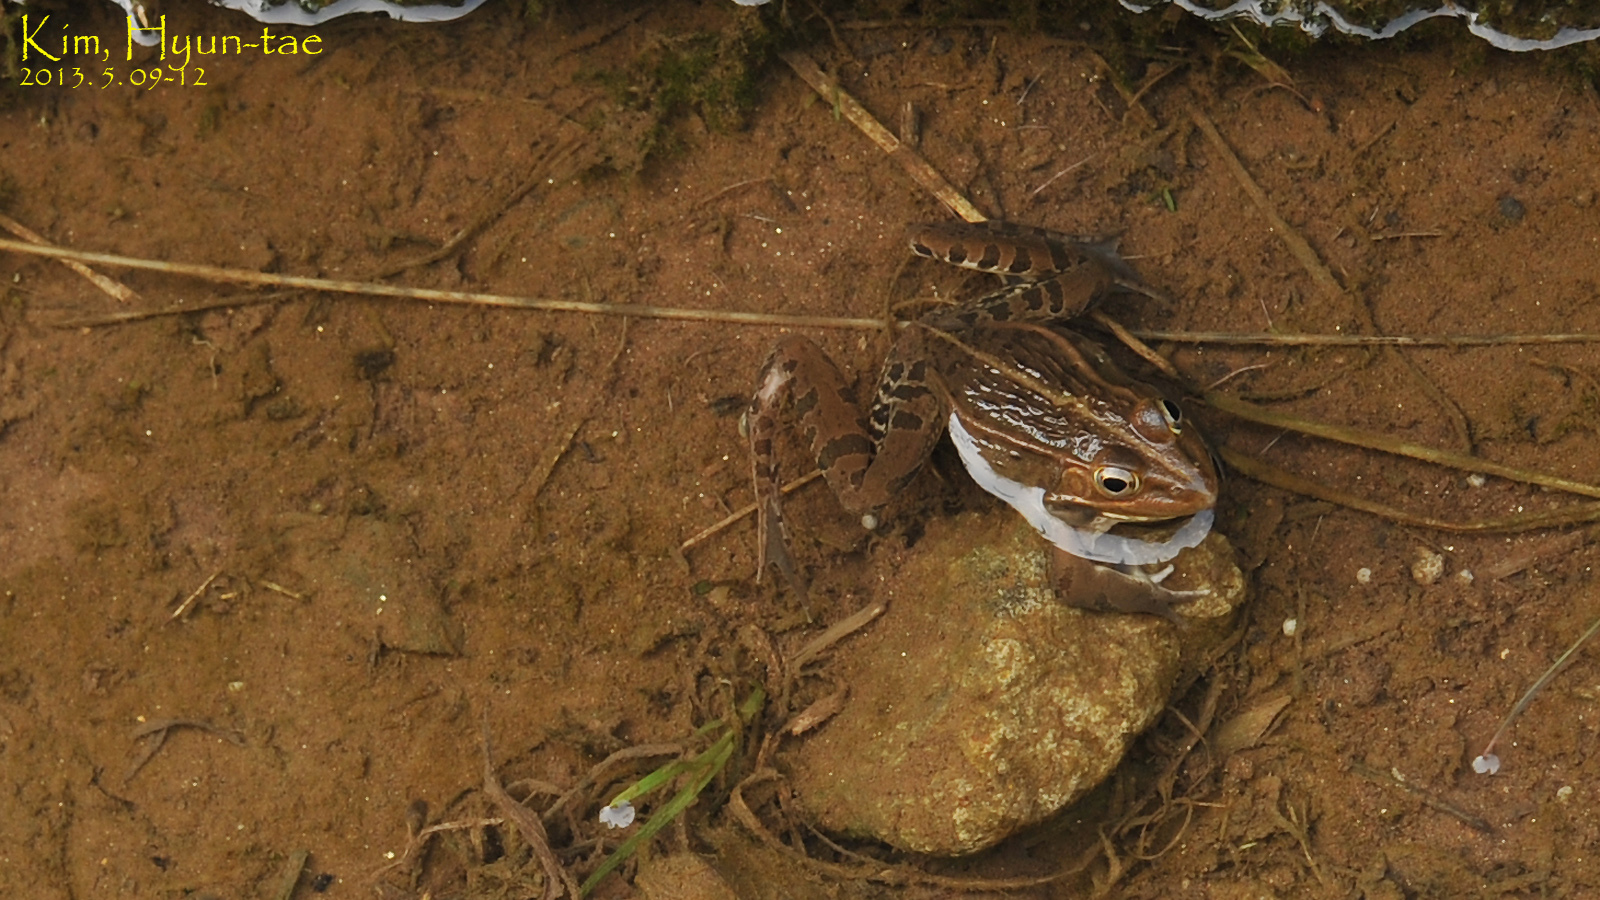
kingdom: Animalia
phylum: Chordata
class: Amphibia
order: Anura
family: Ranidae
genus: Pelophylax
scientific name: Pelophylax nigromaculatus
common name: Black-spotted pond frog
